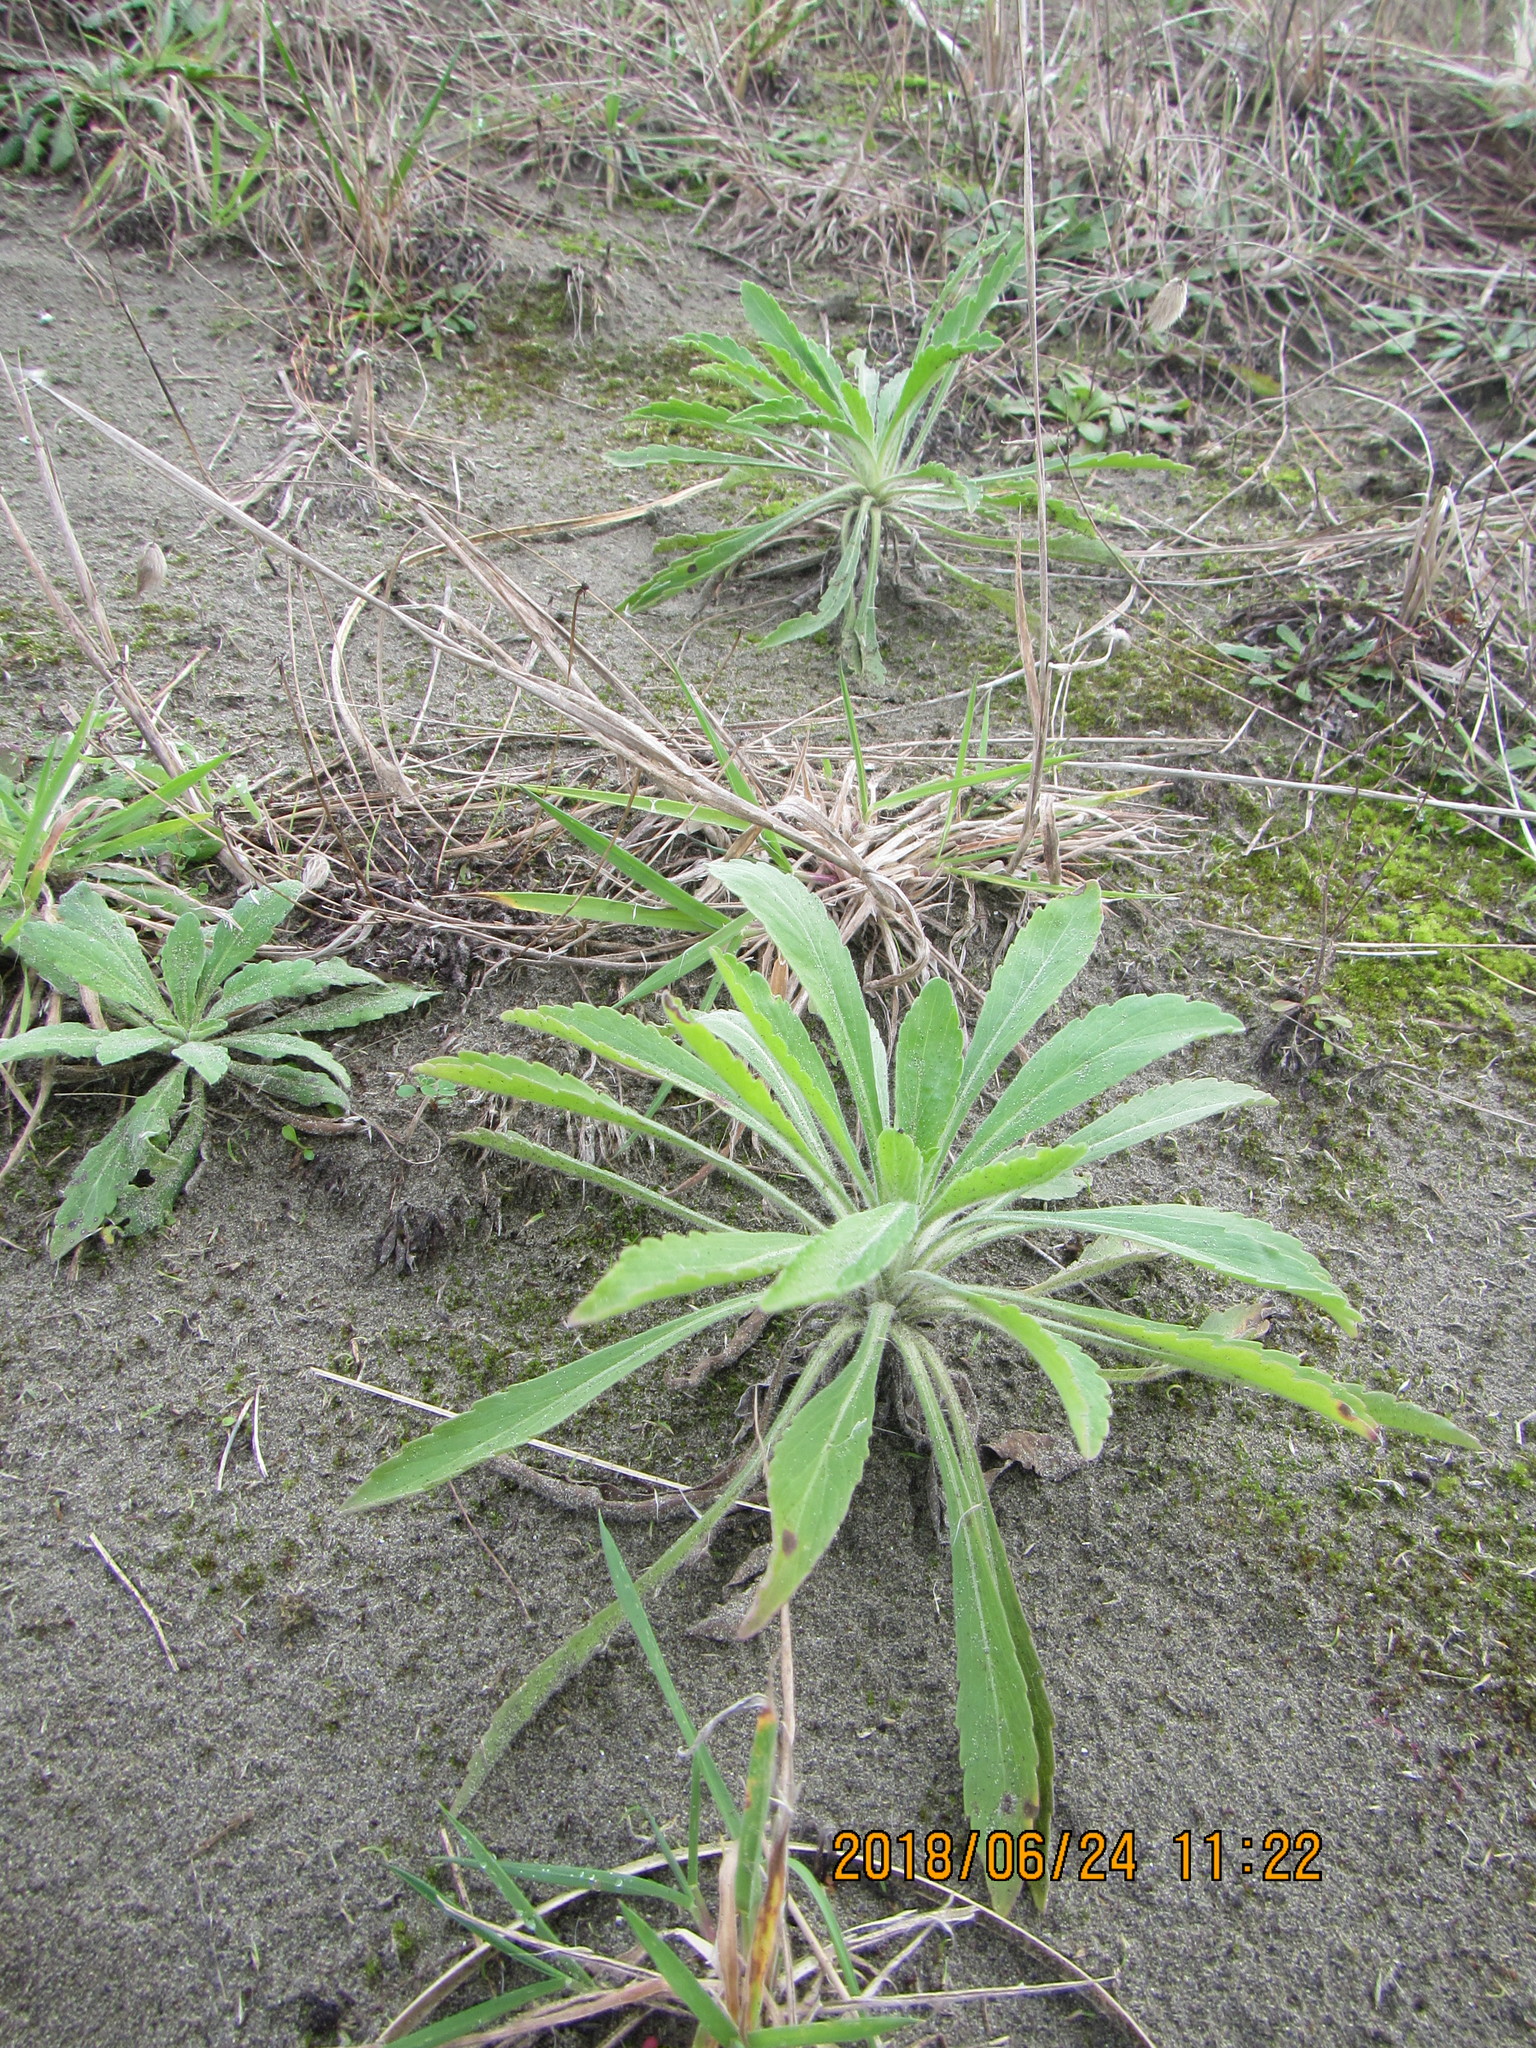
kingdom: Plantae
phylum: Tracheophyta
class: Magnoliopsida
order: Asterales
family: Asteraceae
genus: Erigeron
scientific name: Erigeron sumatrensis
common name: Daisy
